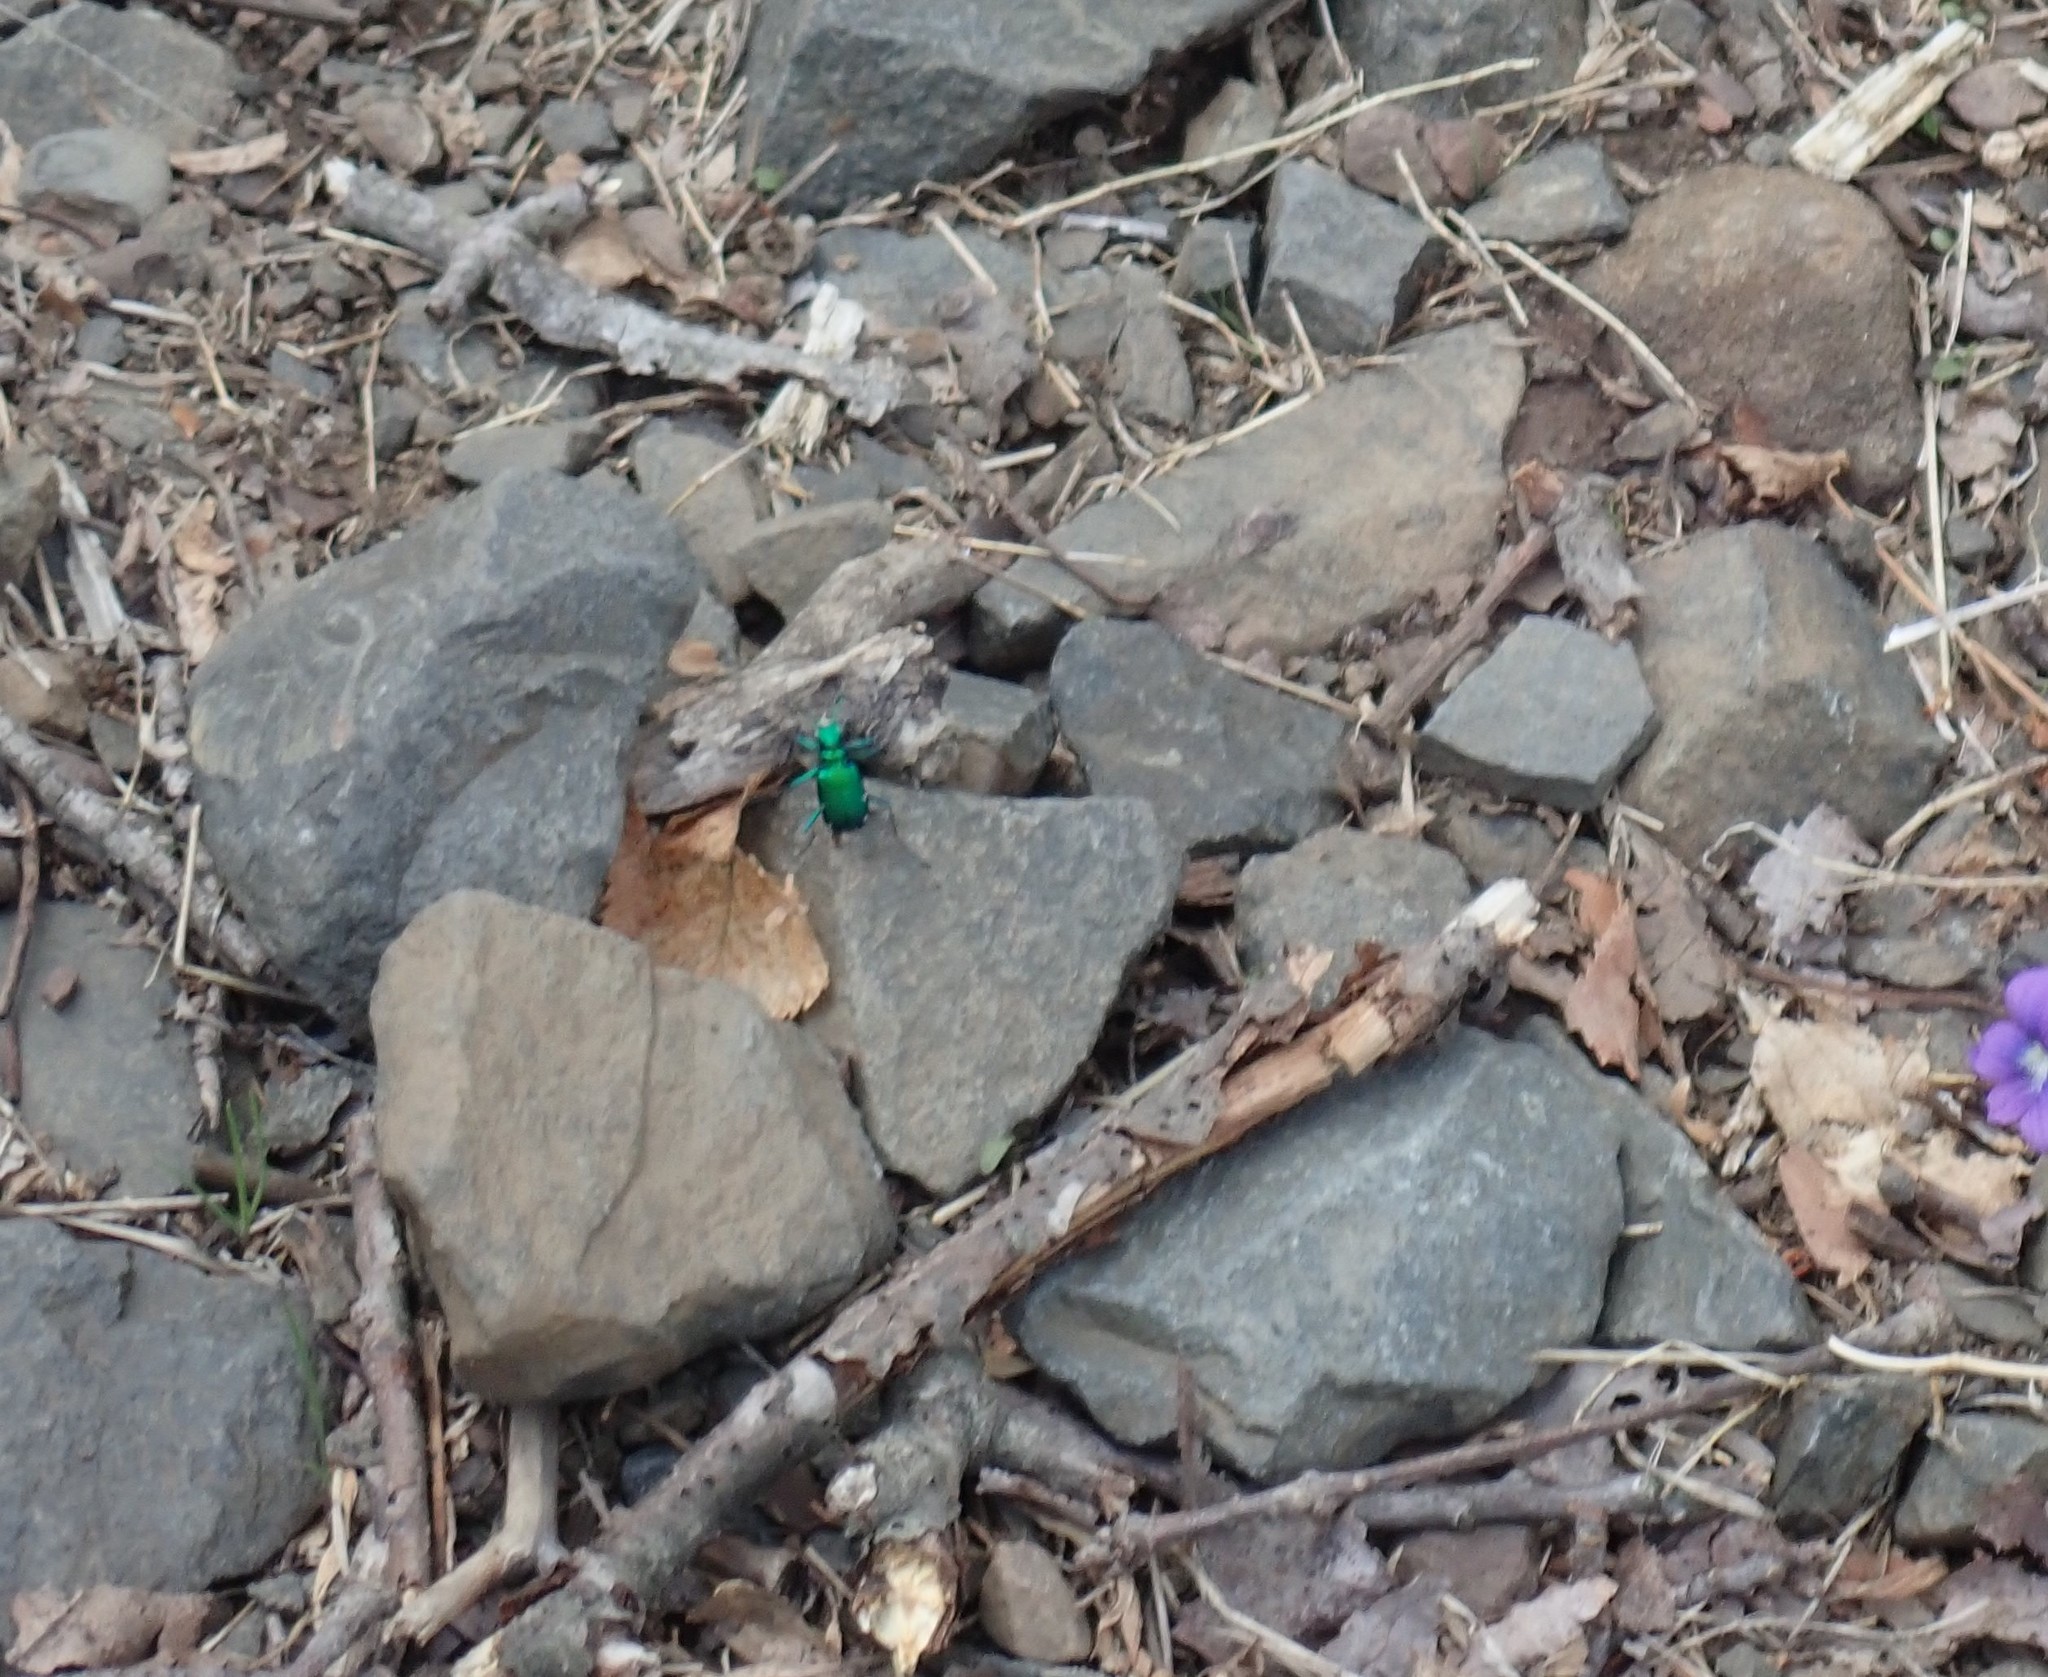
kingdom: Animalia
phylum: Arthropoda
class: Insecta
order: Coleoptera
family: Carabidae
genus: Cicindela
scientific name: Cicindela sexguttata
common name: Six-spotted tiger beetle
